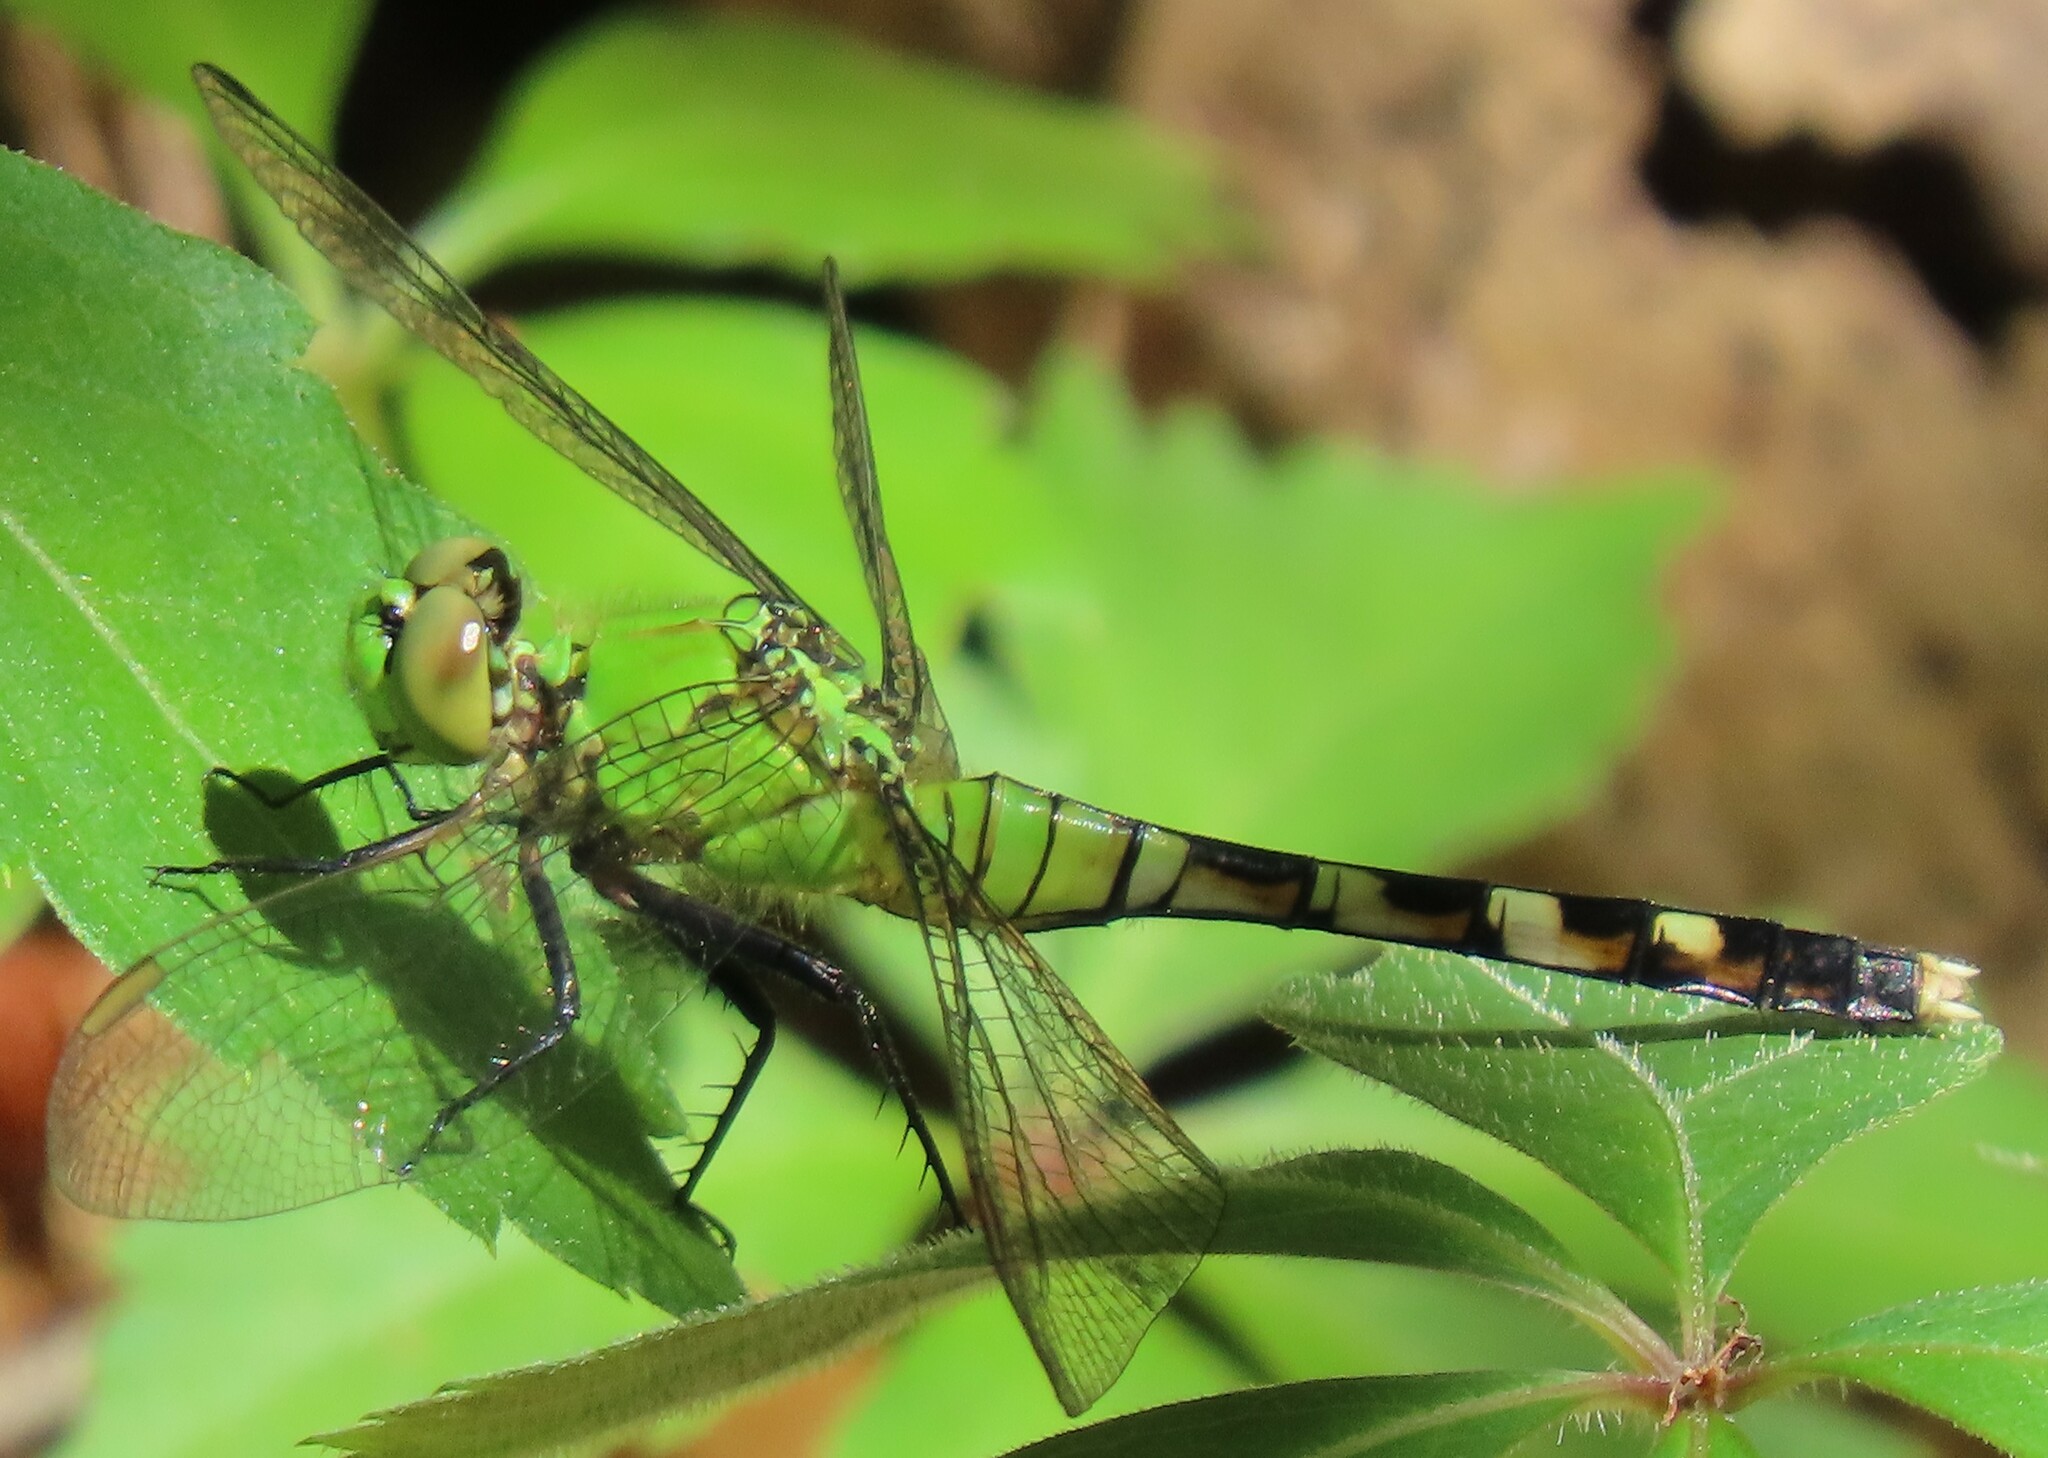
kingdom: Animalia
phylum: Arthropoda
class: Insecta
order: Odonata
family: Libellulidae
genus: Erythemis
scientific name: Erythemis simplicicollis
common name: Eastern pondhawk
